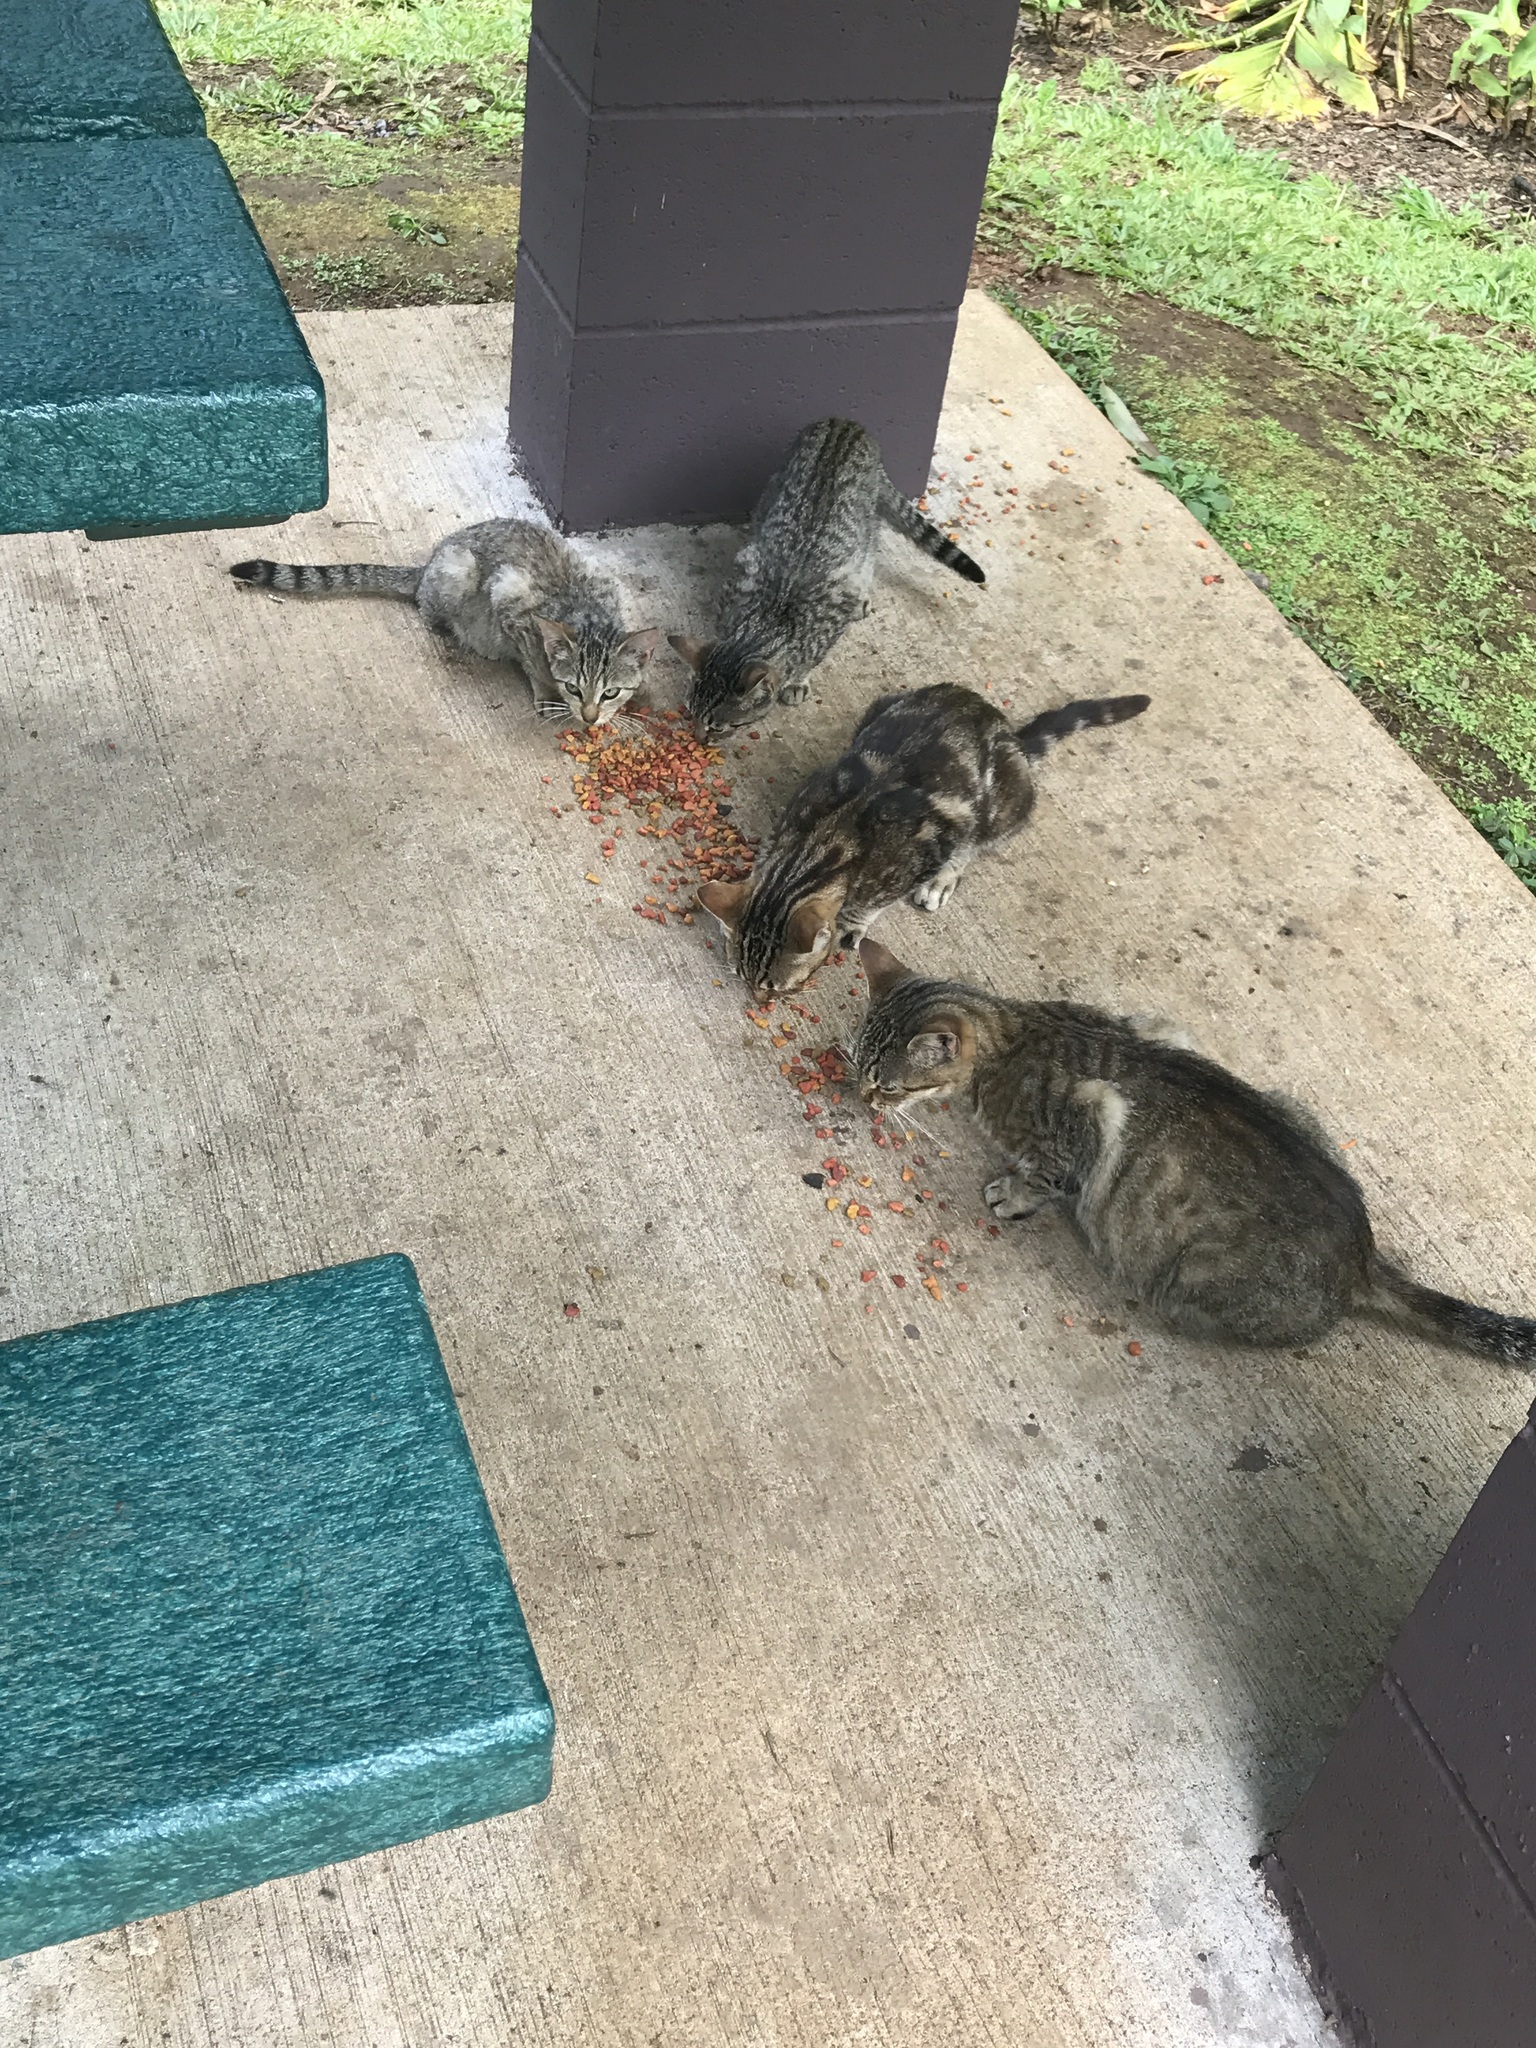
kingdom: Animalia
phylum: Chordata
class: Mammalia
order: Carnivora
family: Felidae
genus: Felis
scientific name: Felis catus
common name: Domestic cat
